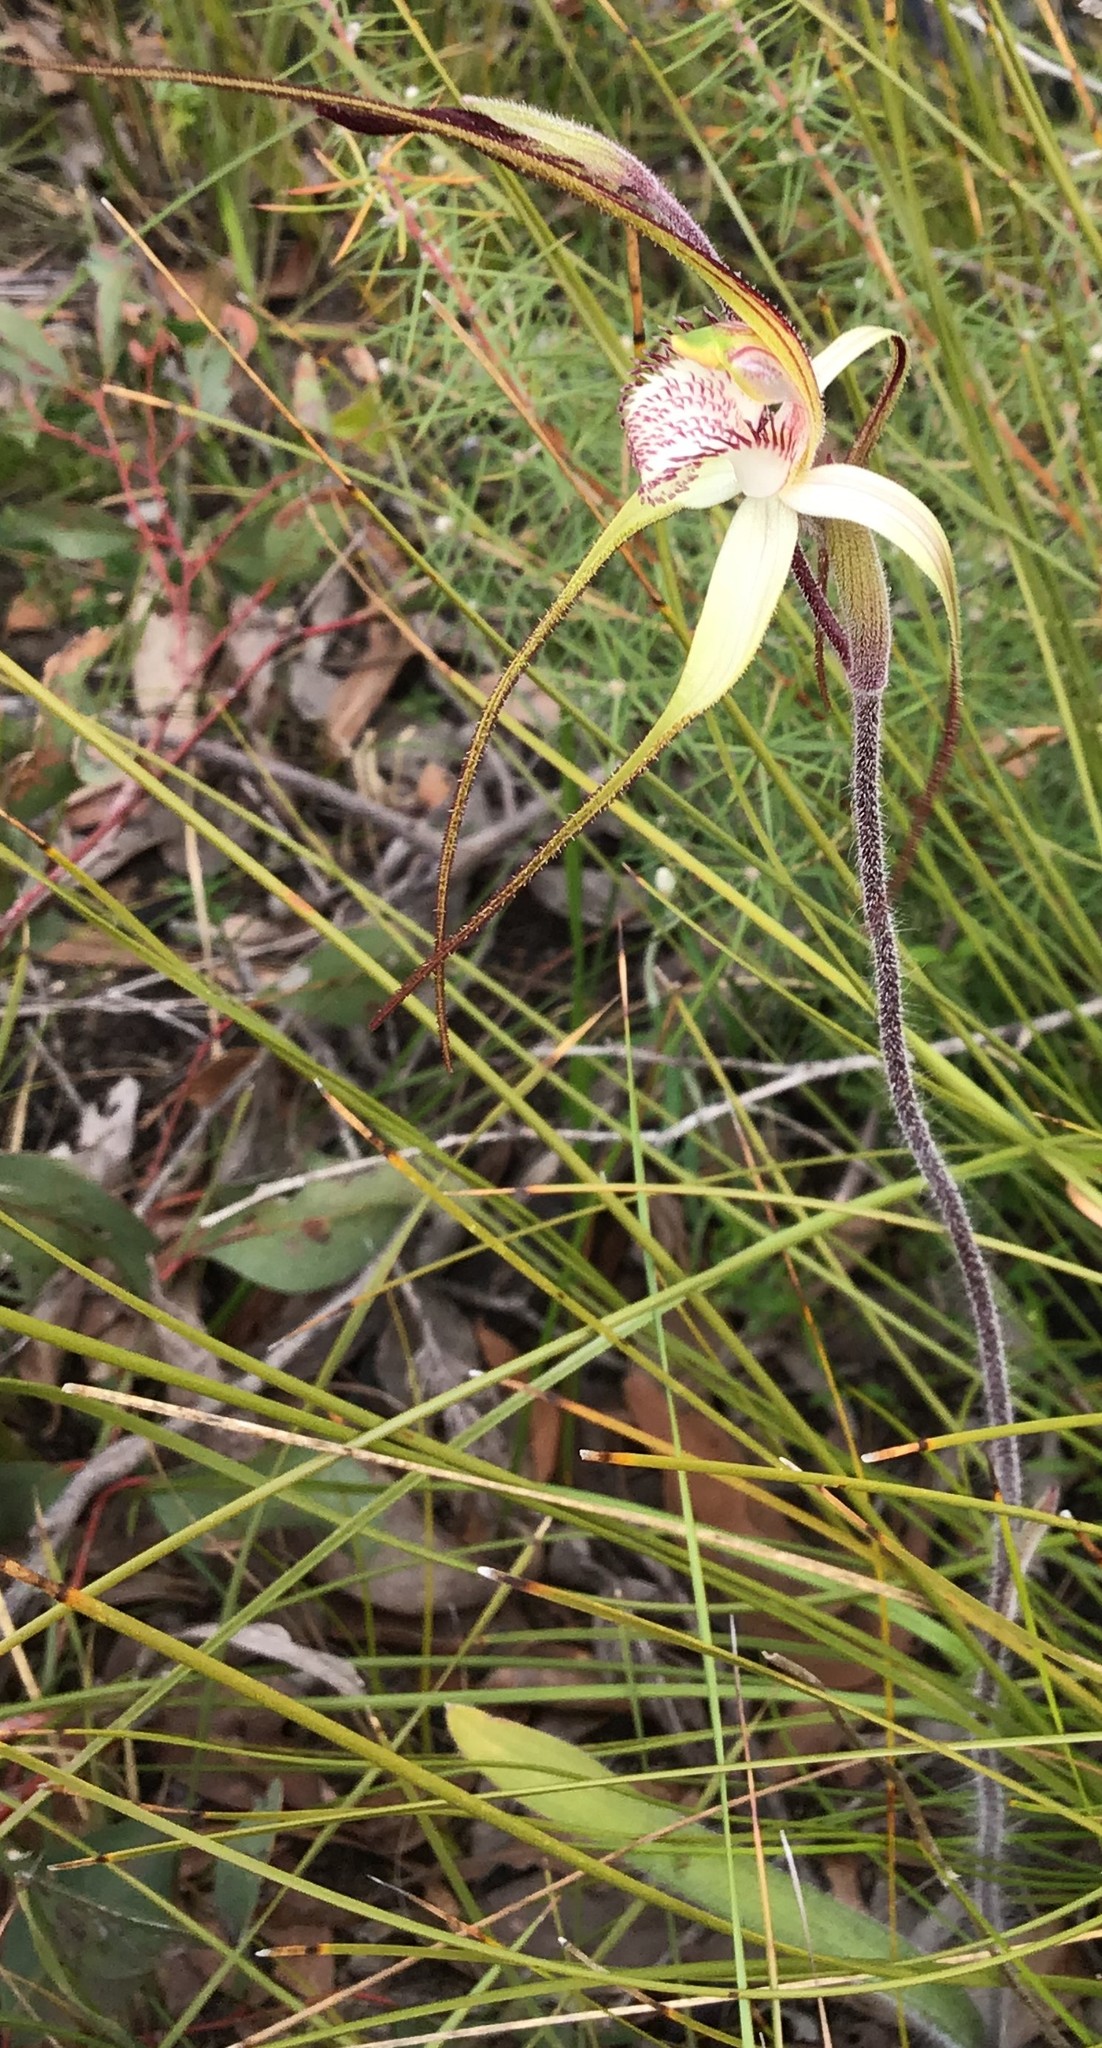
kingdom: Plantae
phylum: Tracheophyta
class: Liliopsida
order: Asparagales
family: Orchidaceae
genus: Caladenia
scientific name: Caladenia venusta
